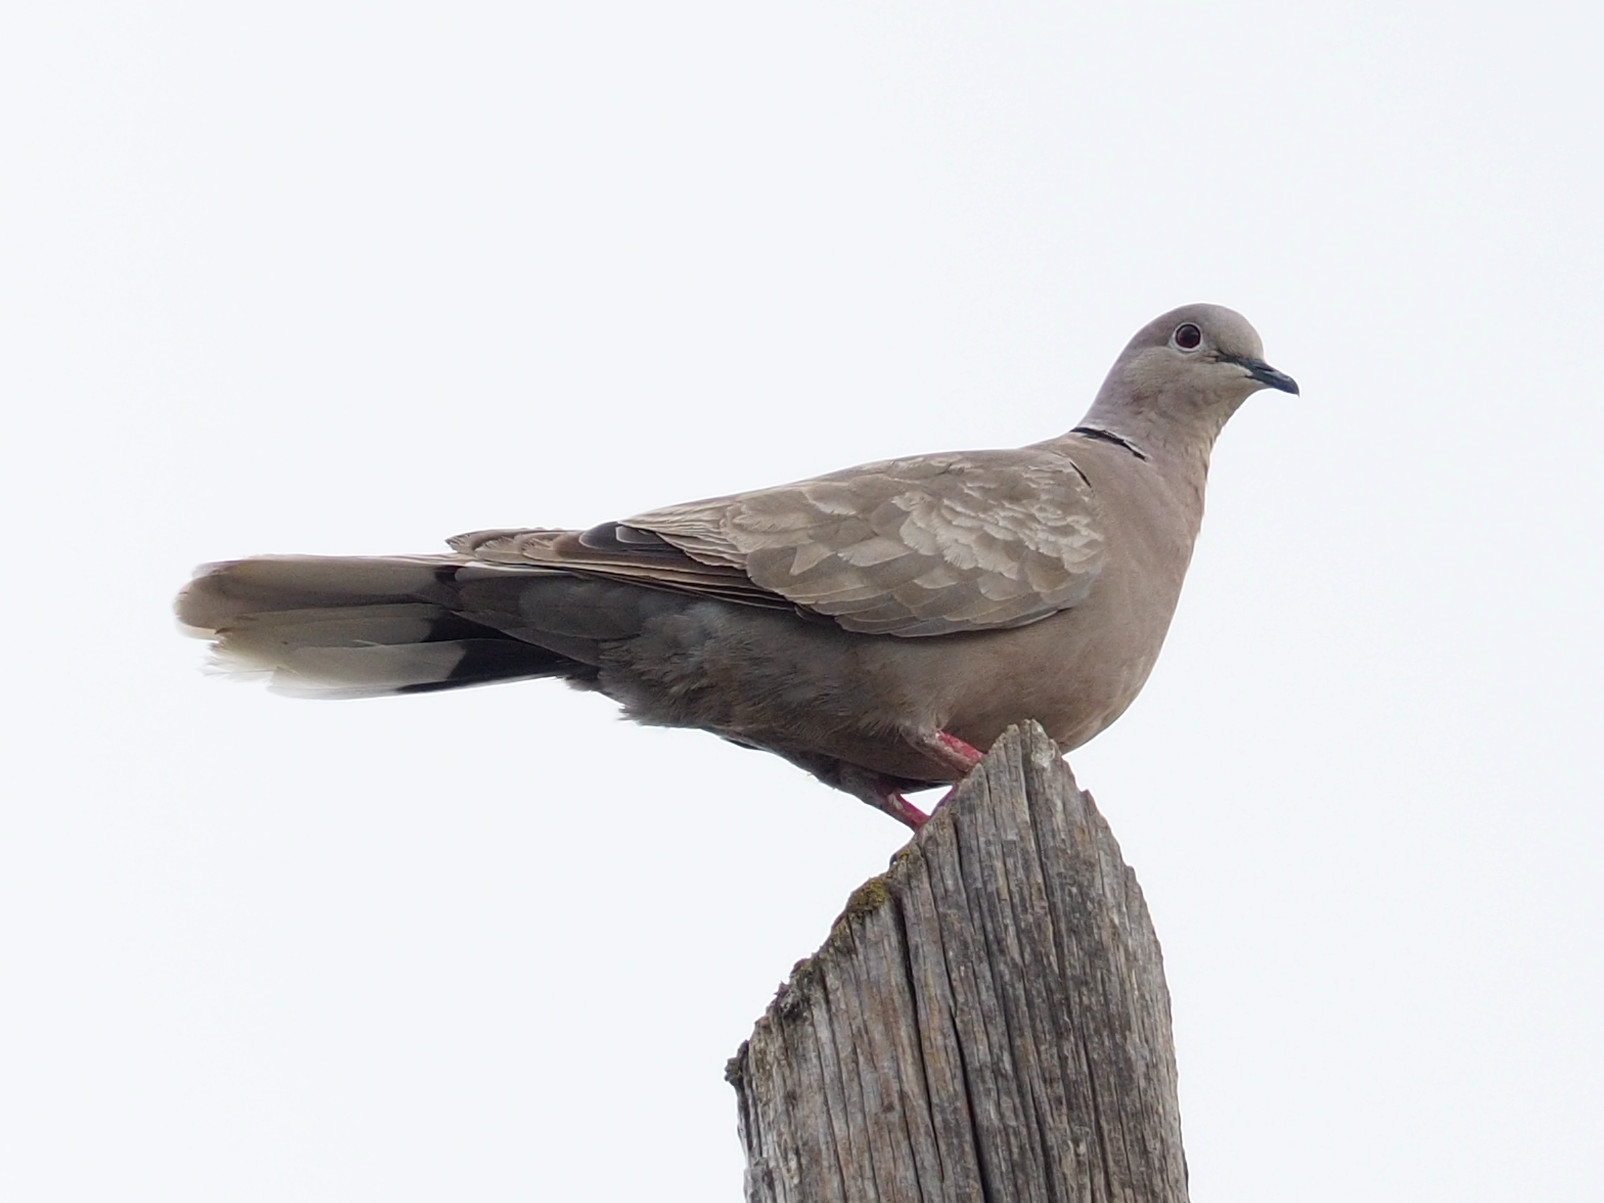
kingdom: Animalia
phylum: Chordata
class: Aves
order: Columbiformes
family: Columbidae
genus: Streptopelia
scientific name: Streptopelia decaocto
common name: Eurasian collared dove
